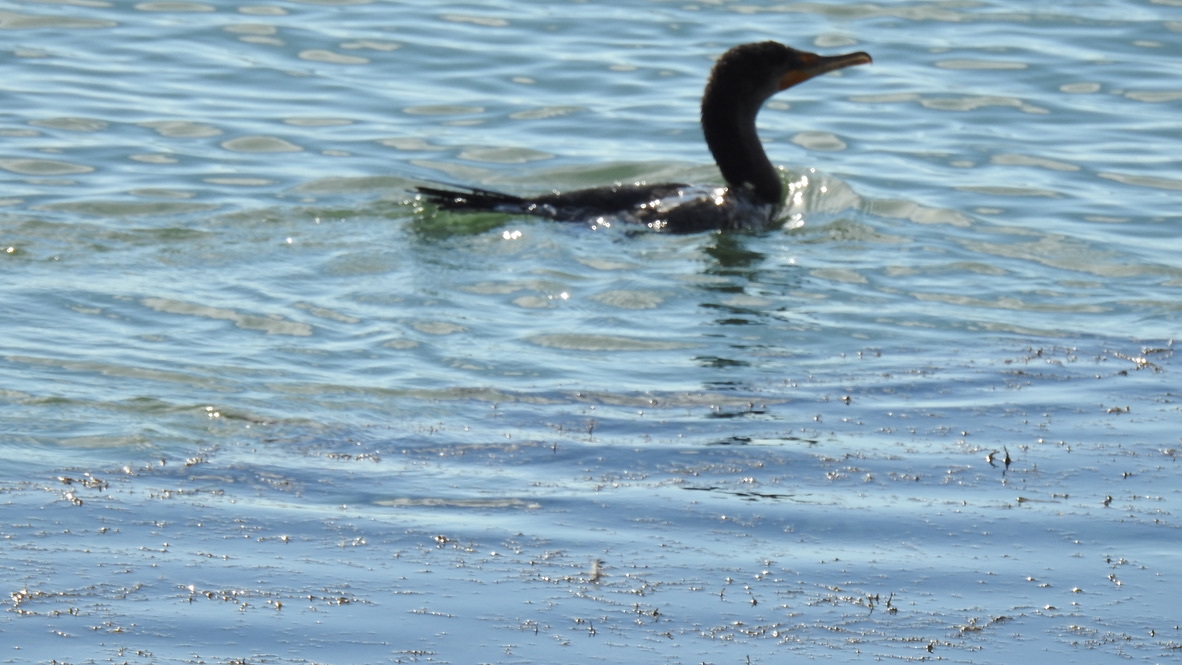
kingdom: Animalia
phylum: Chordata
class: Aves
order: Suliformes
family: Phalacrocoracidae
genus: Phalacrocorax
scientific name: Phalacrocorax auritus
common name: Double-crested cormorant
